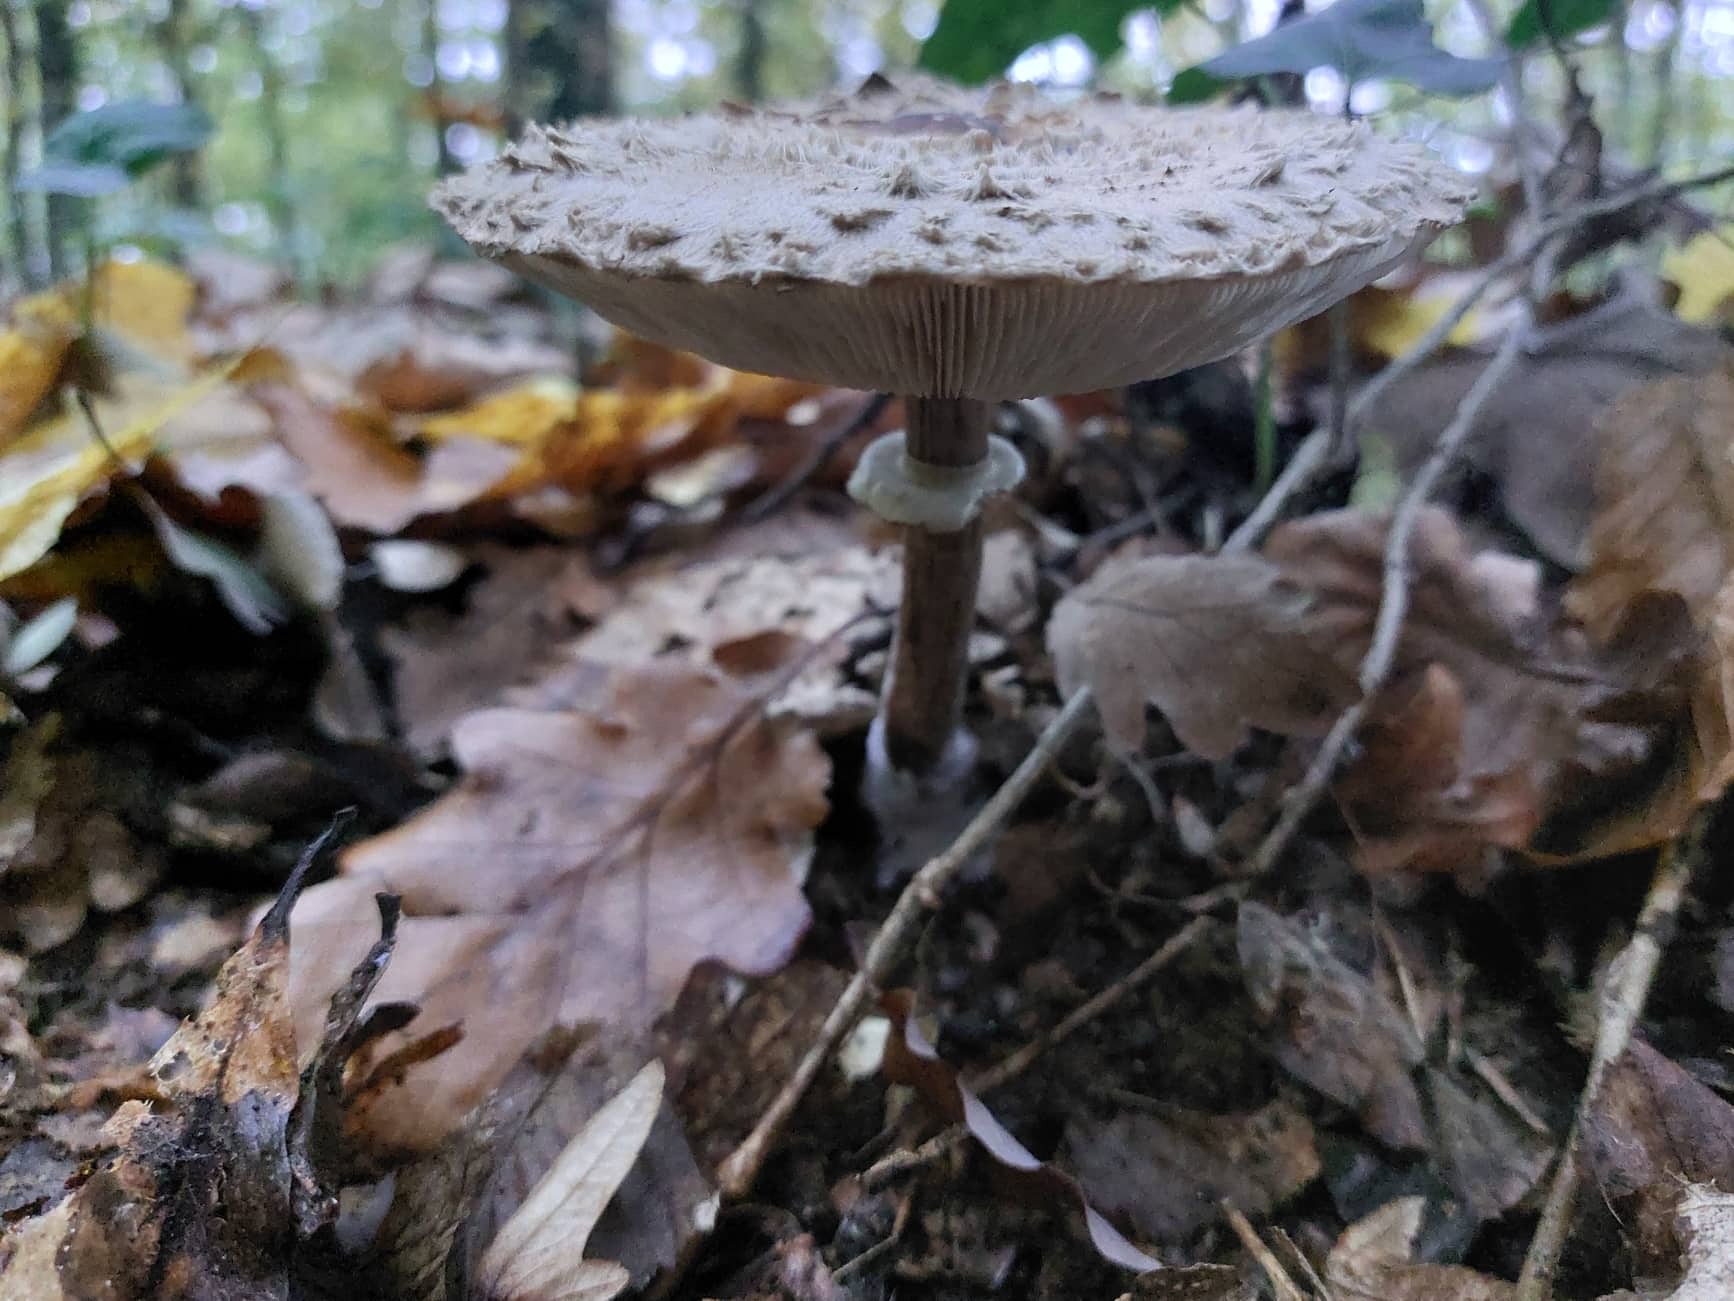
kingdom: Fungi
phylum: Basidiomycota
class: Agaricomycetes
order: Agaricales
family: Agaricaceae
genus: Macrolepiota
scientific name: Macrolepiota procera
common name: Parasol
